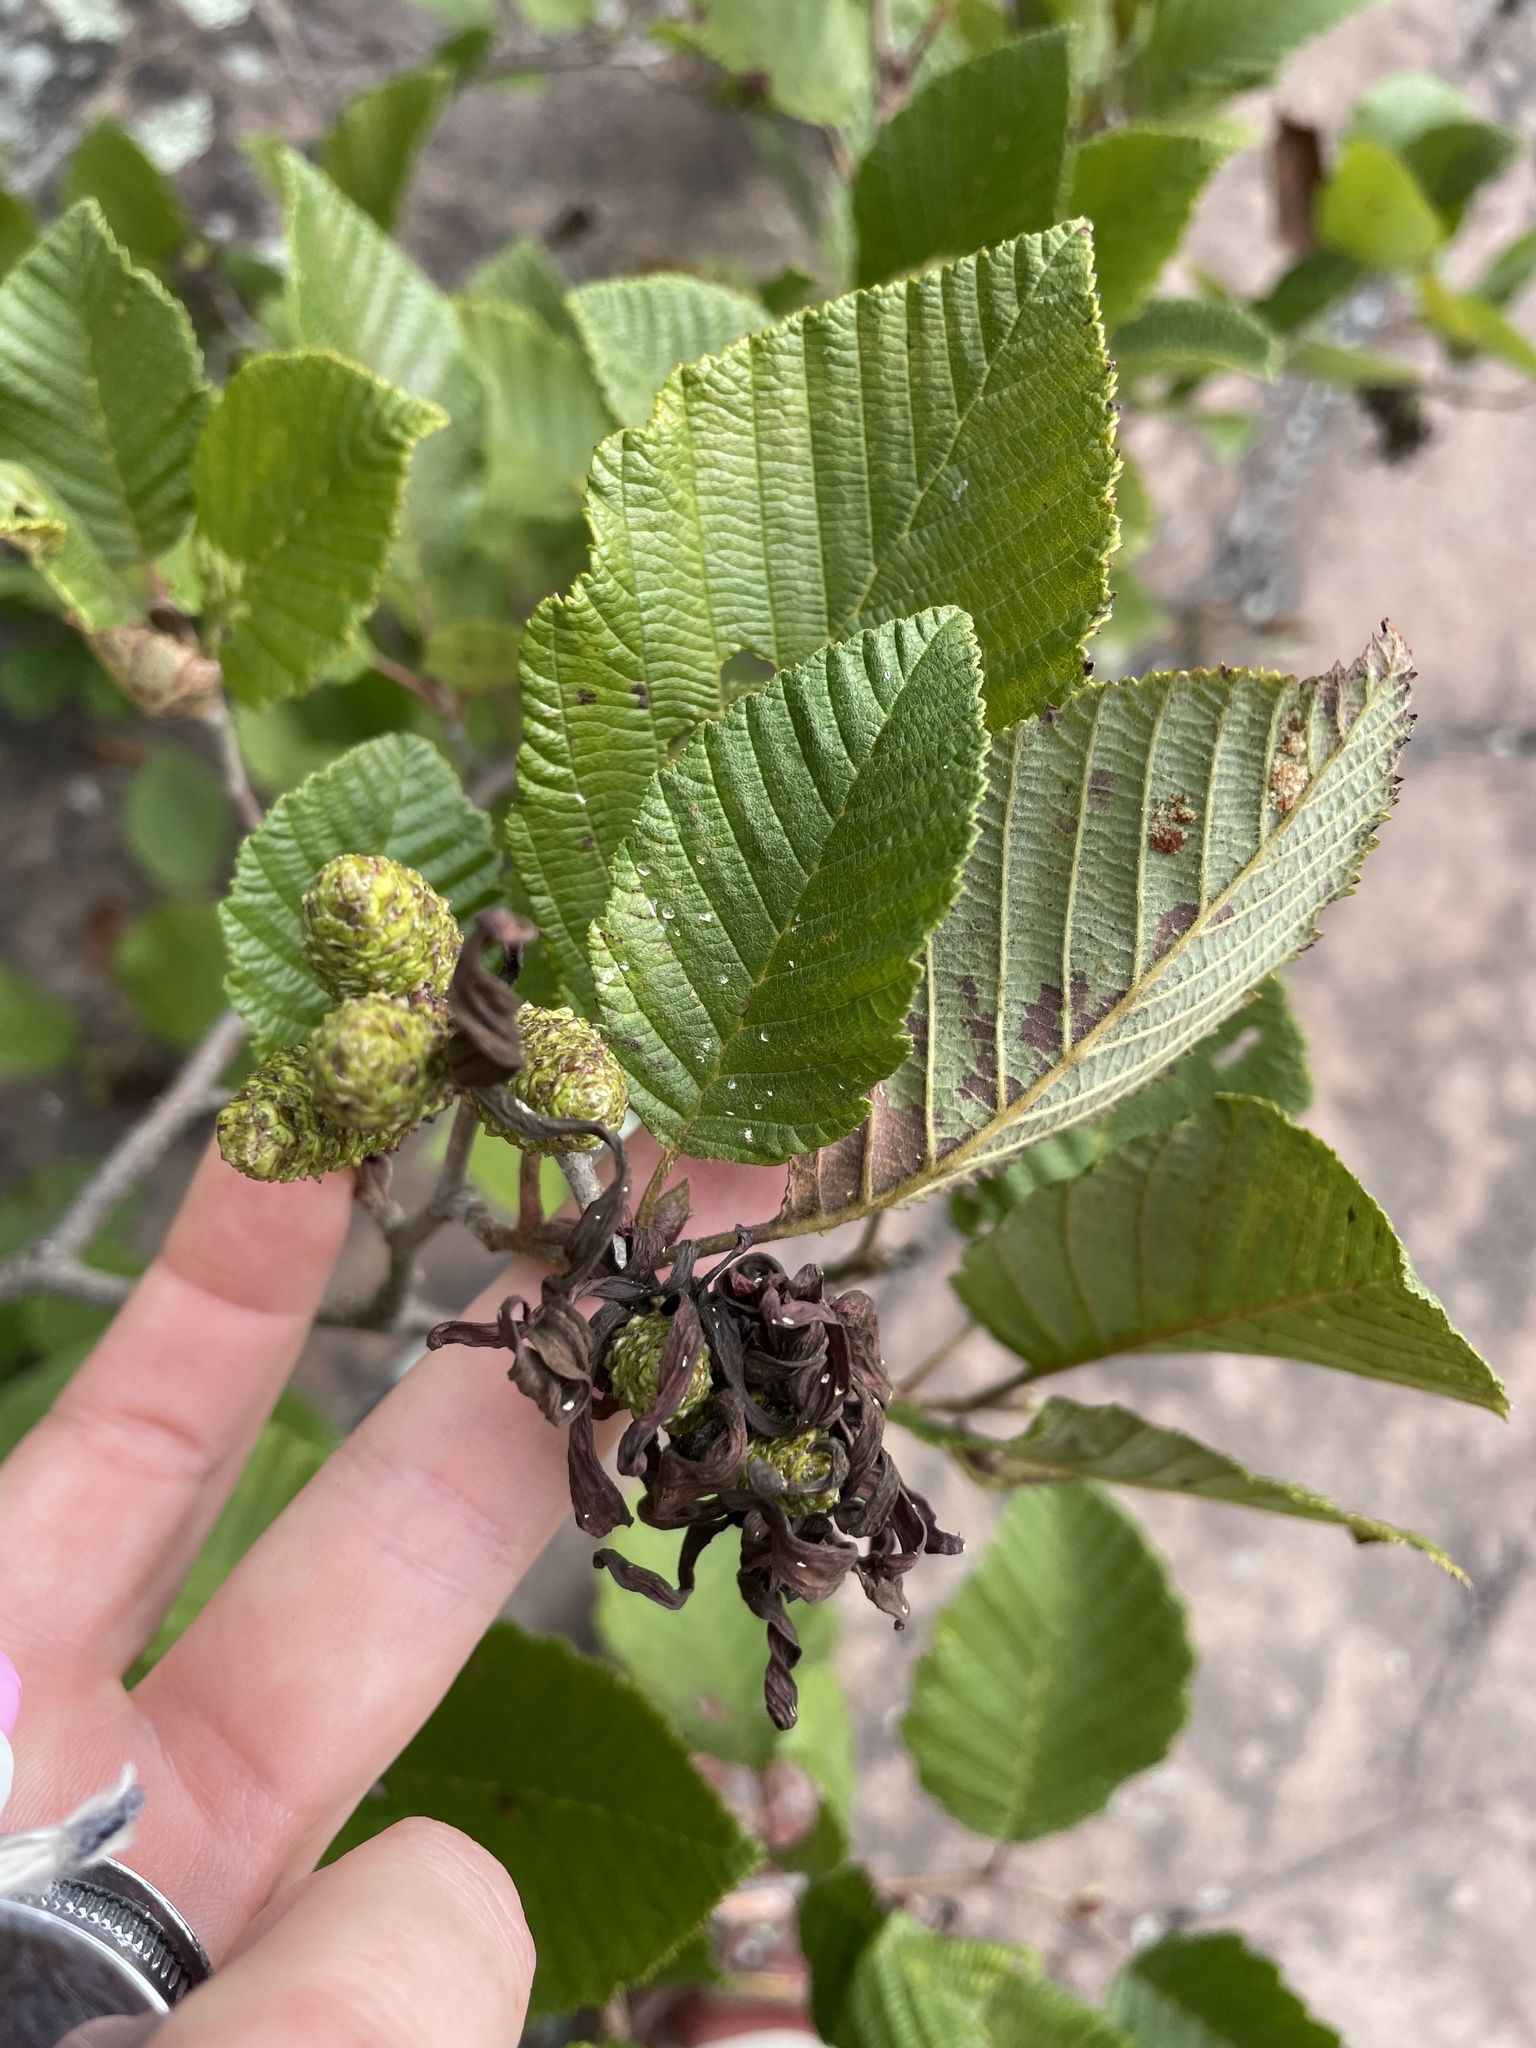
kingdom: Fungi
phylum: Ascomycota
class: Taphrinomycetes
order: Taphrinales
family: Taphrinaceae
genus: Taphrina
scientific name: Taphrina robinsoniana
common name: Eastern american alder tongue gall fungus
